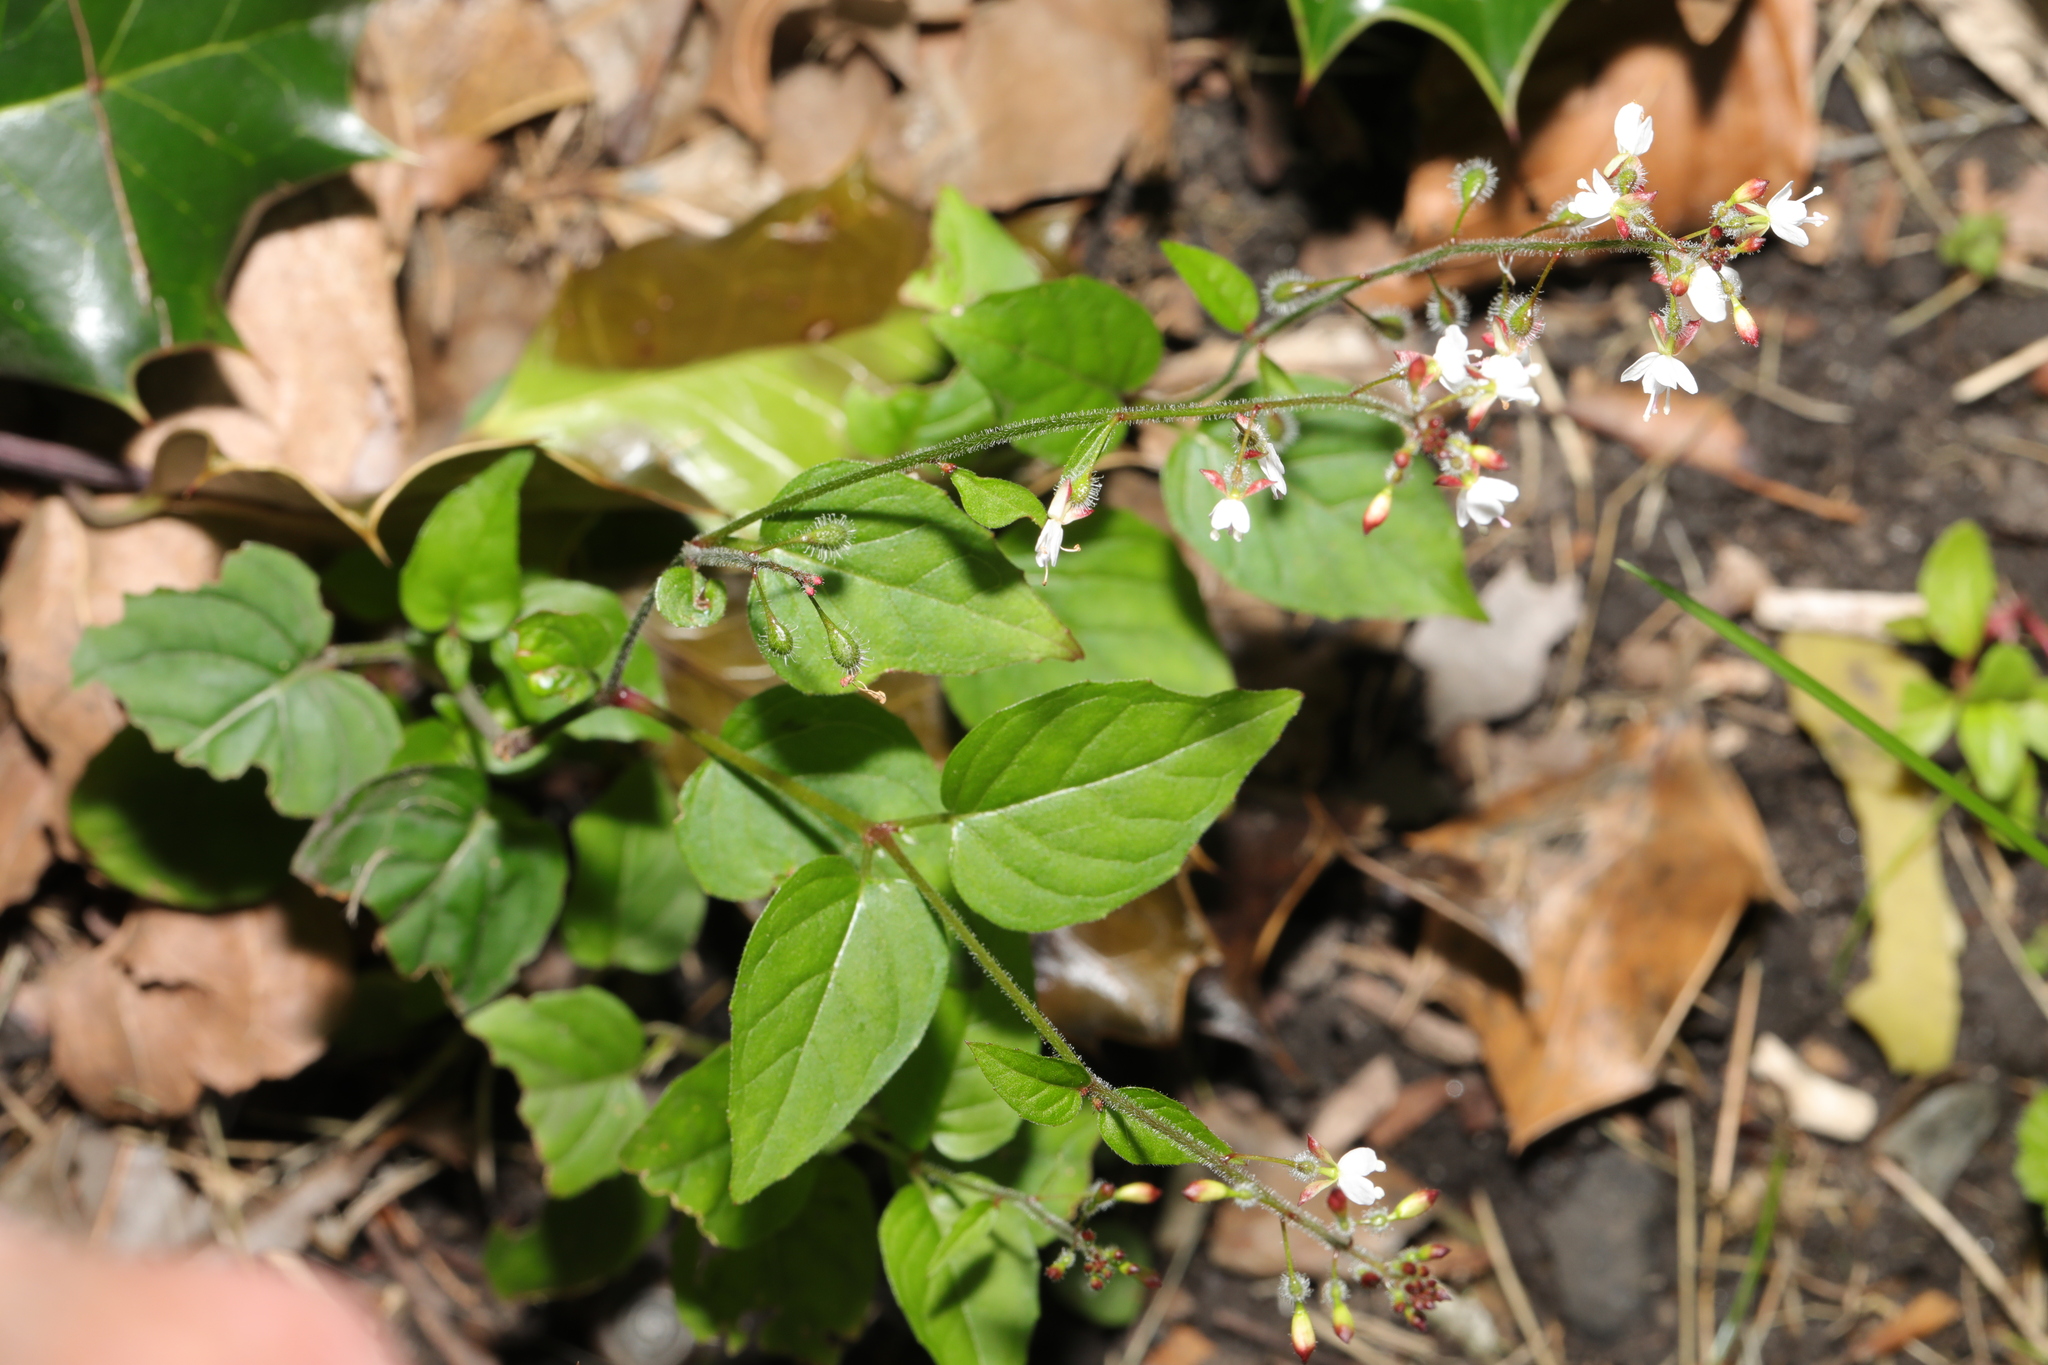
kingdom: Plantae
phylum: Tracheophyta
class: Magnoliopsida
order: Myrtales
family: Onagraceae
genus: Circaea
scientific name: Circaea lutetiana
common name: Enchanter's-nightshade
